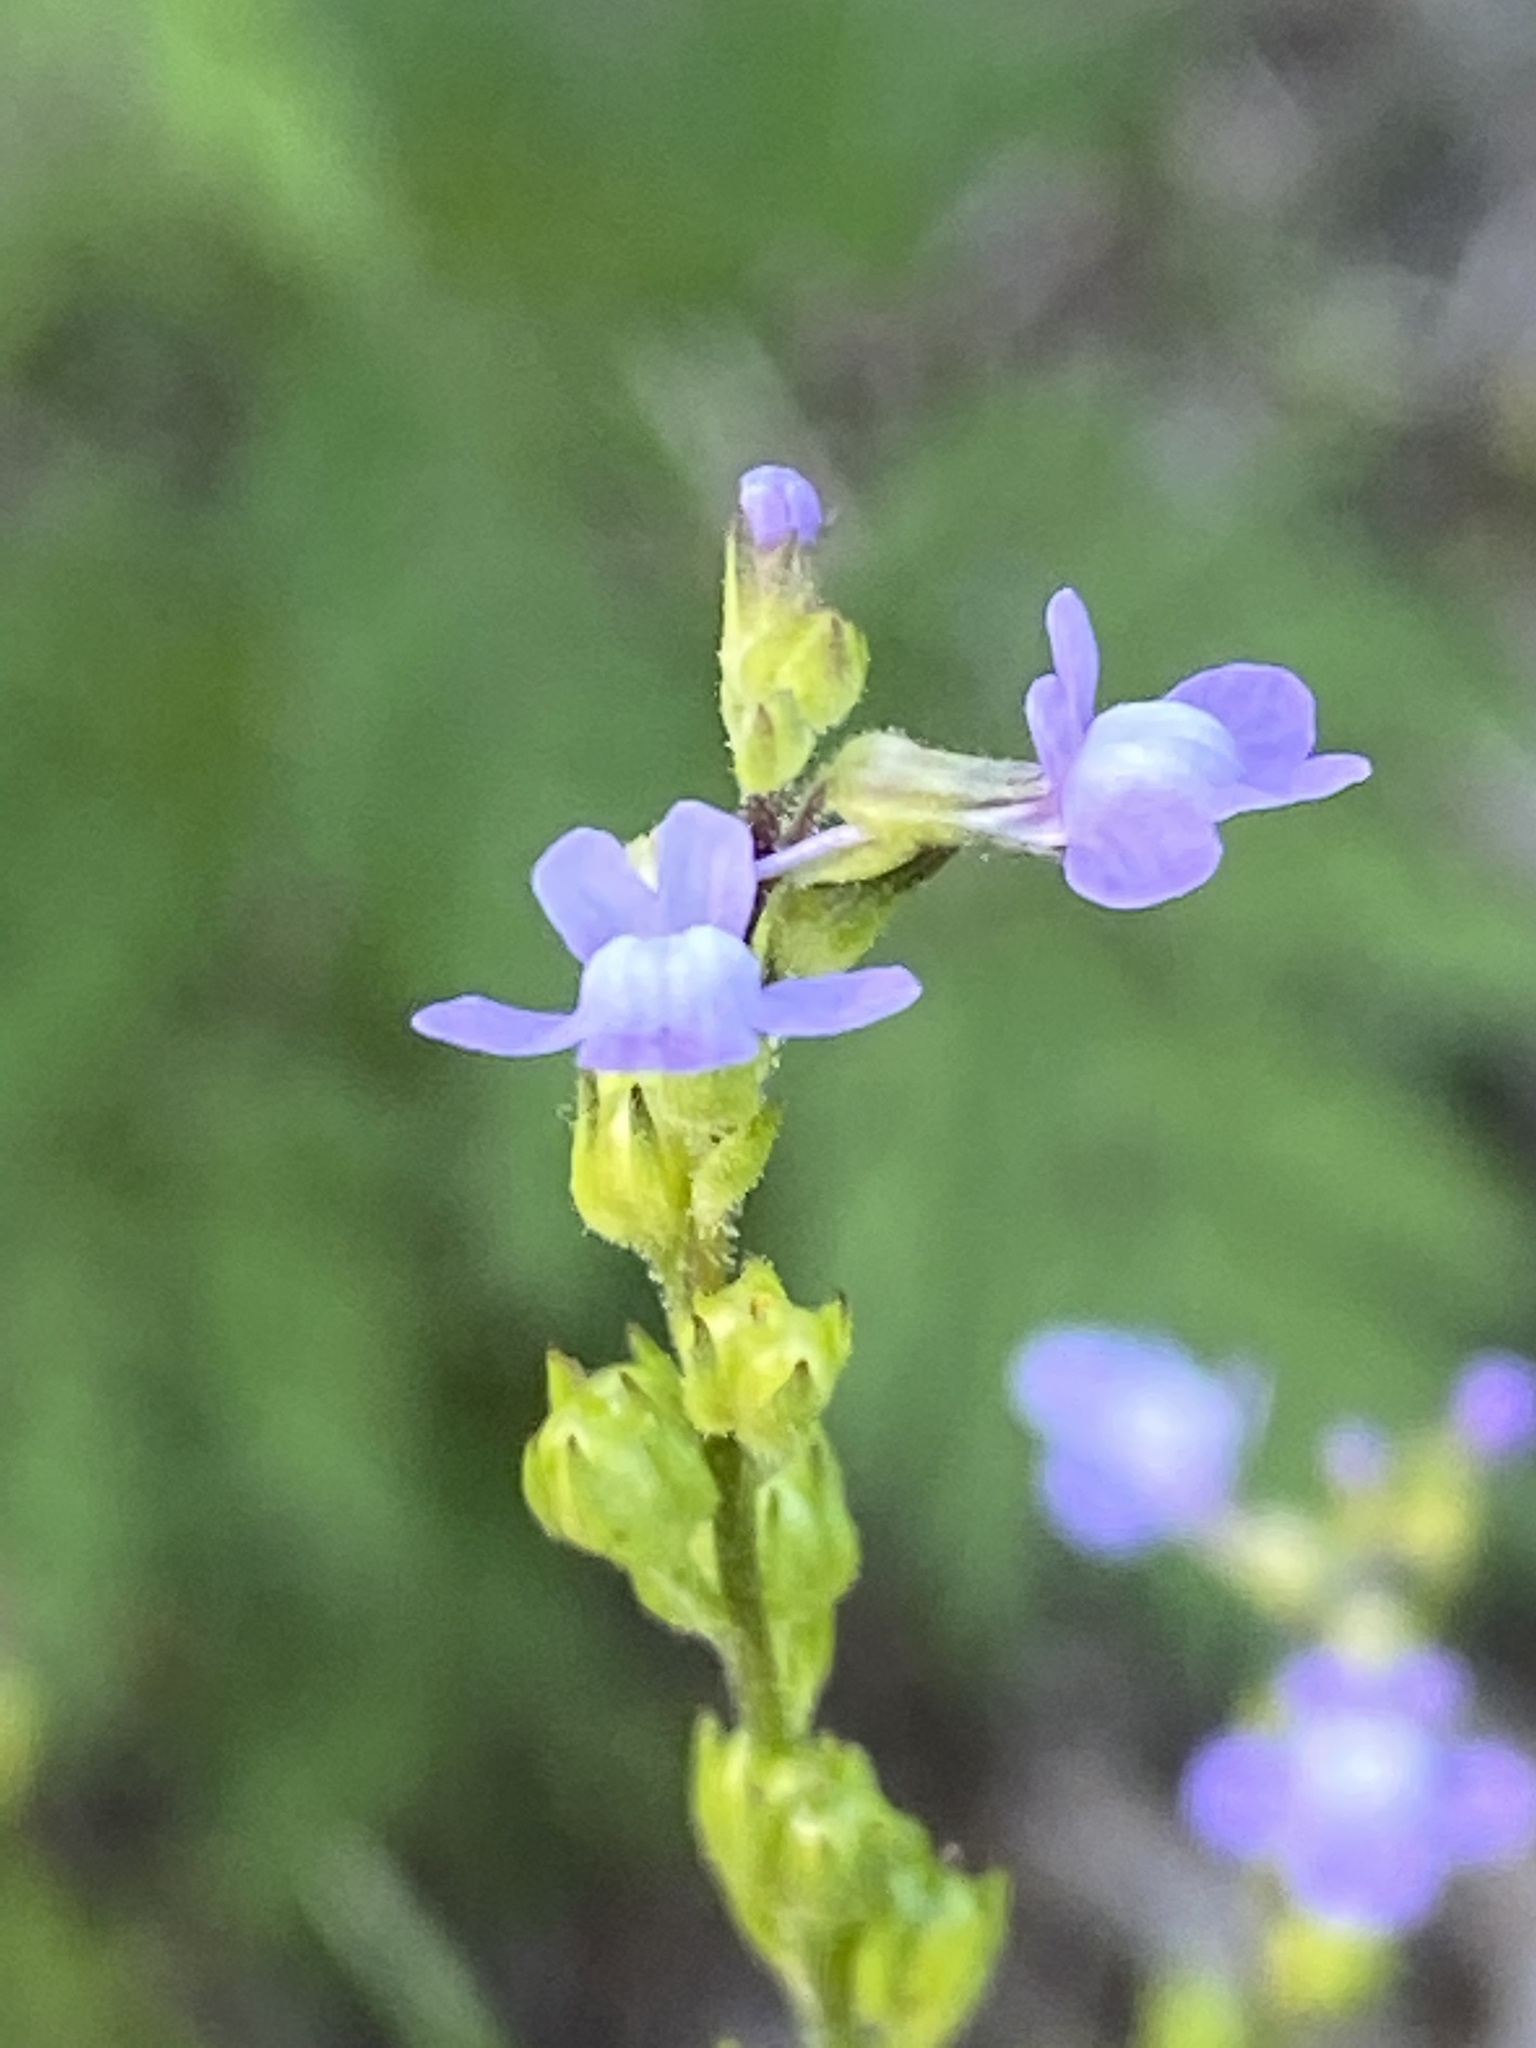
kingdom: Plantae
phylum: Tracheophyta
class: Magnoliopsida
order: Lamiales
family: Plantaginaceae
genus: Nuttallanthus
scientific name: Nuttallanthus canadensis
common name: Blue toadflax
